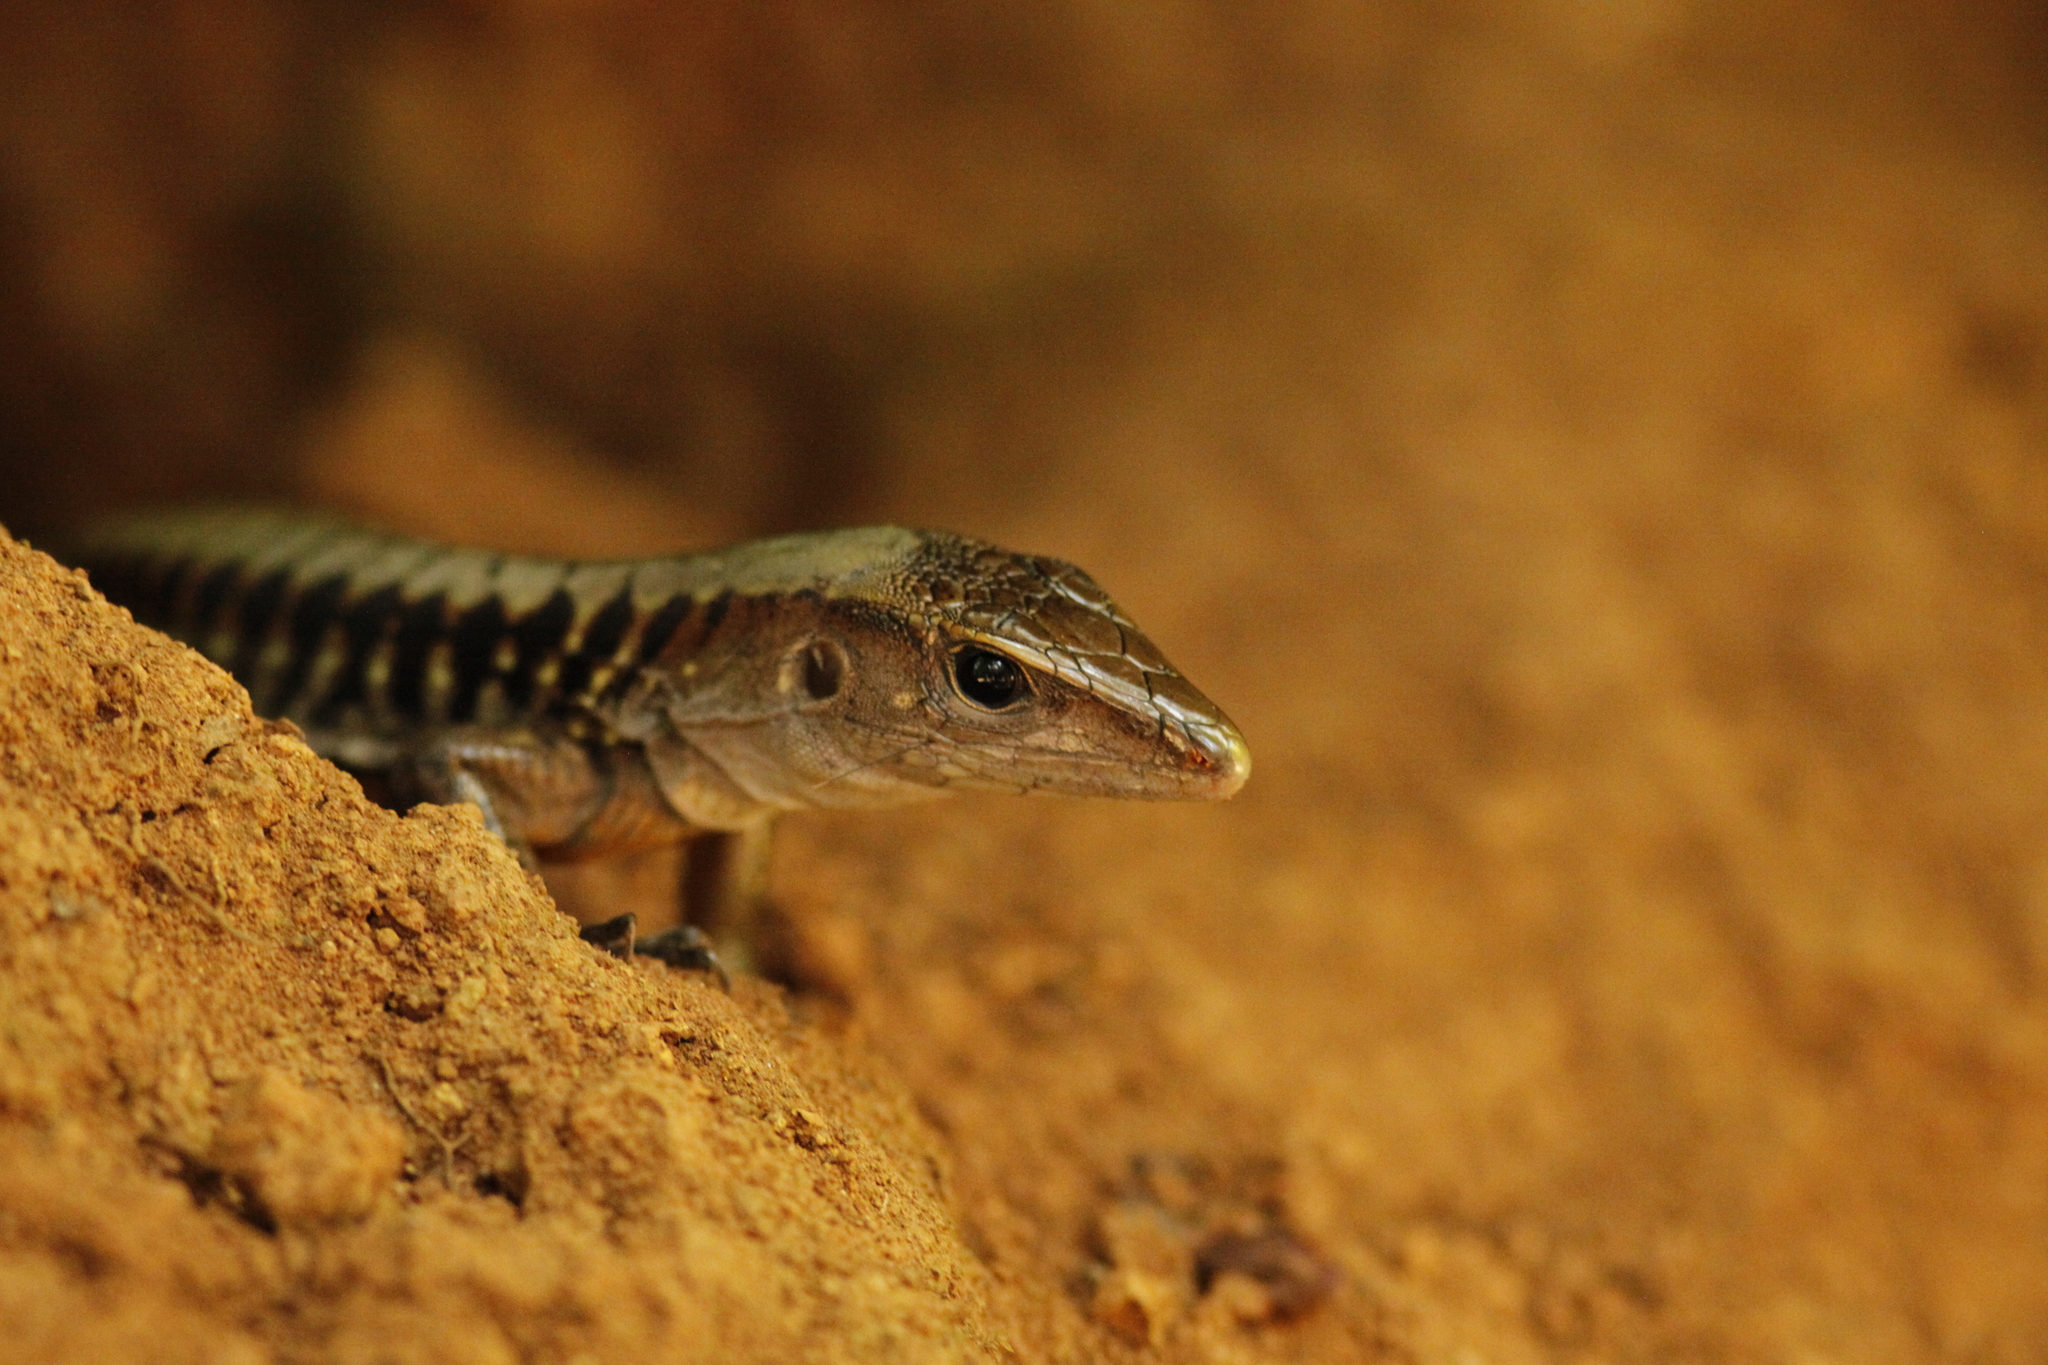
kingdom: Animalia
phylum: Chordata
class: Squamata
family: Teiidae
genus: Holcosus
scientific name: Holcosus leptophrys
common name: Delicate ameiva
